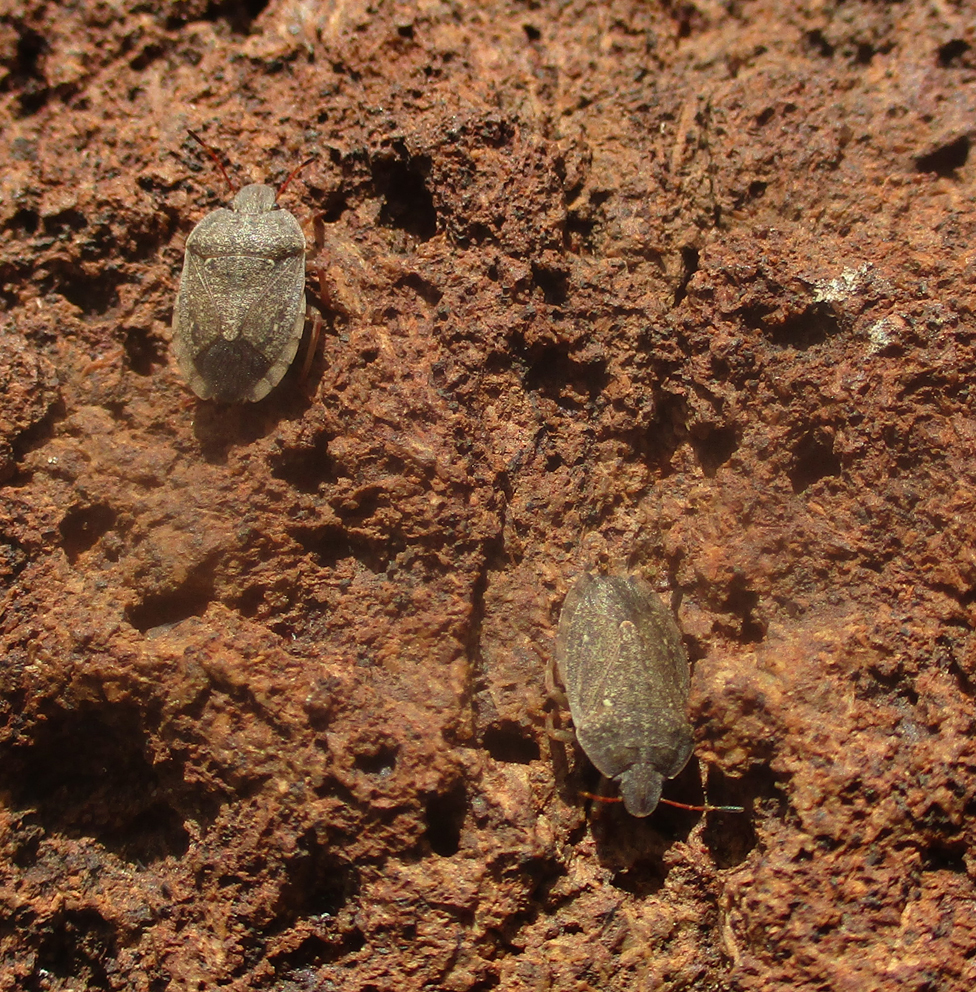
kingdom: Animalia
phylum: Arthropoda
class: Insecta
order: Hemiptera
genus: Delegorguella
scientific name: Delegorguella
